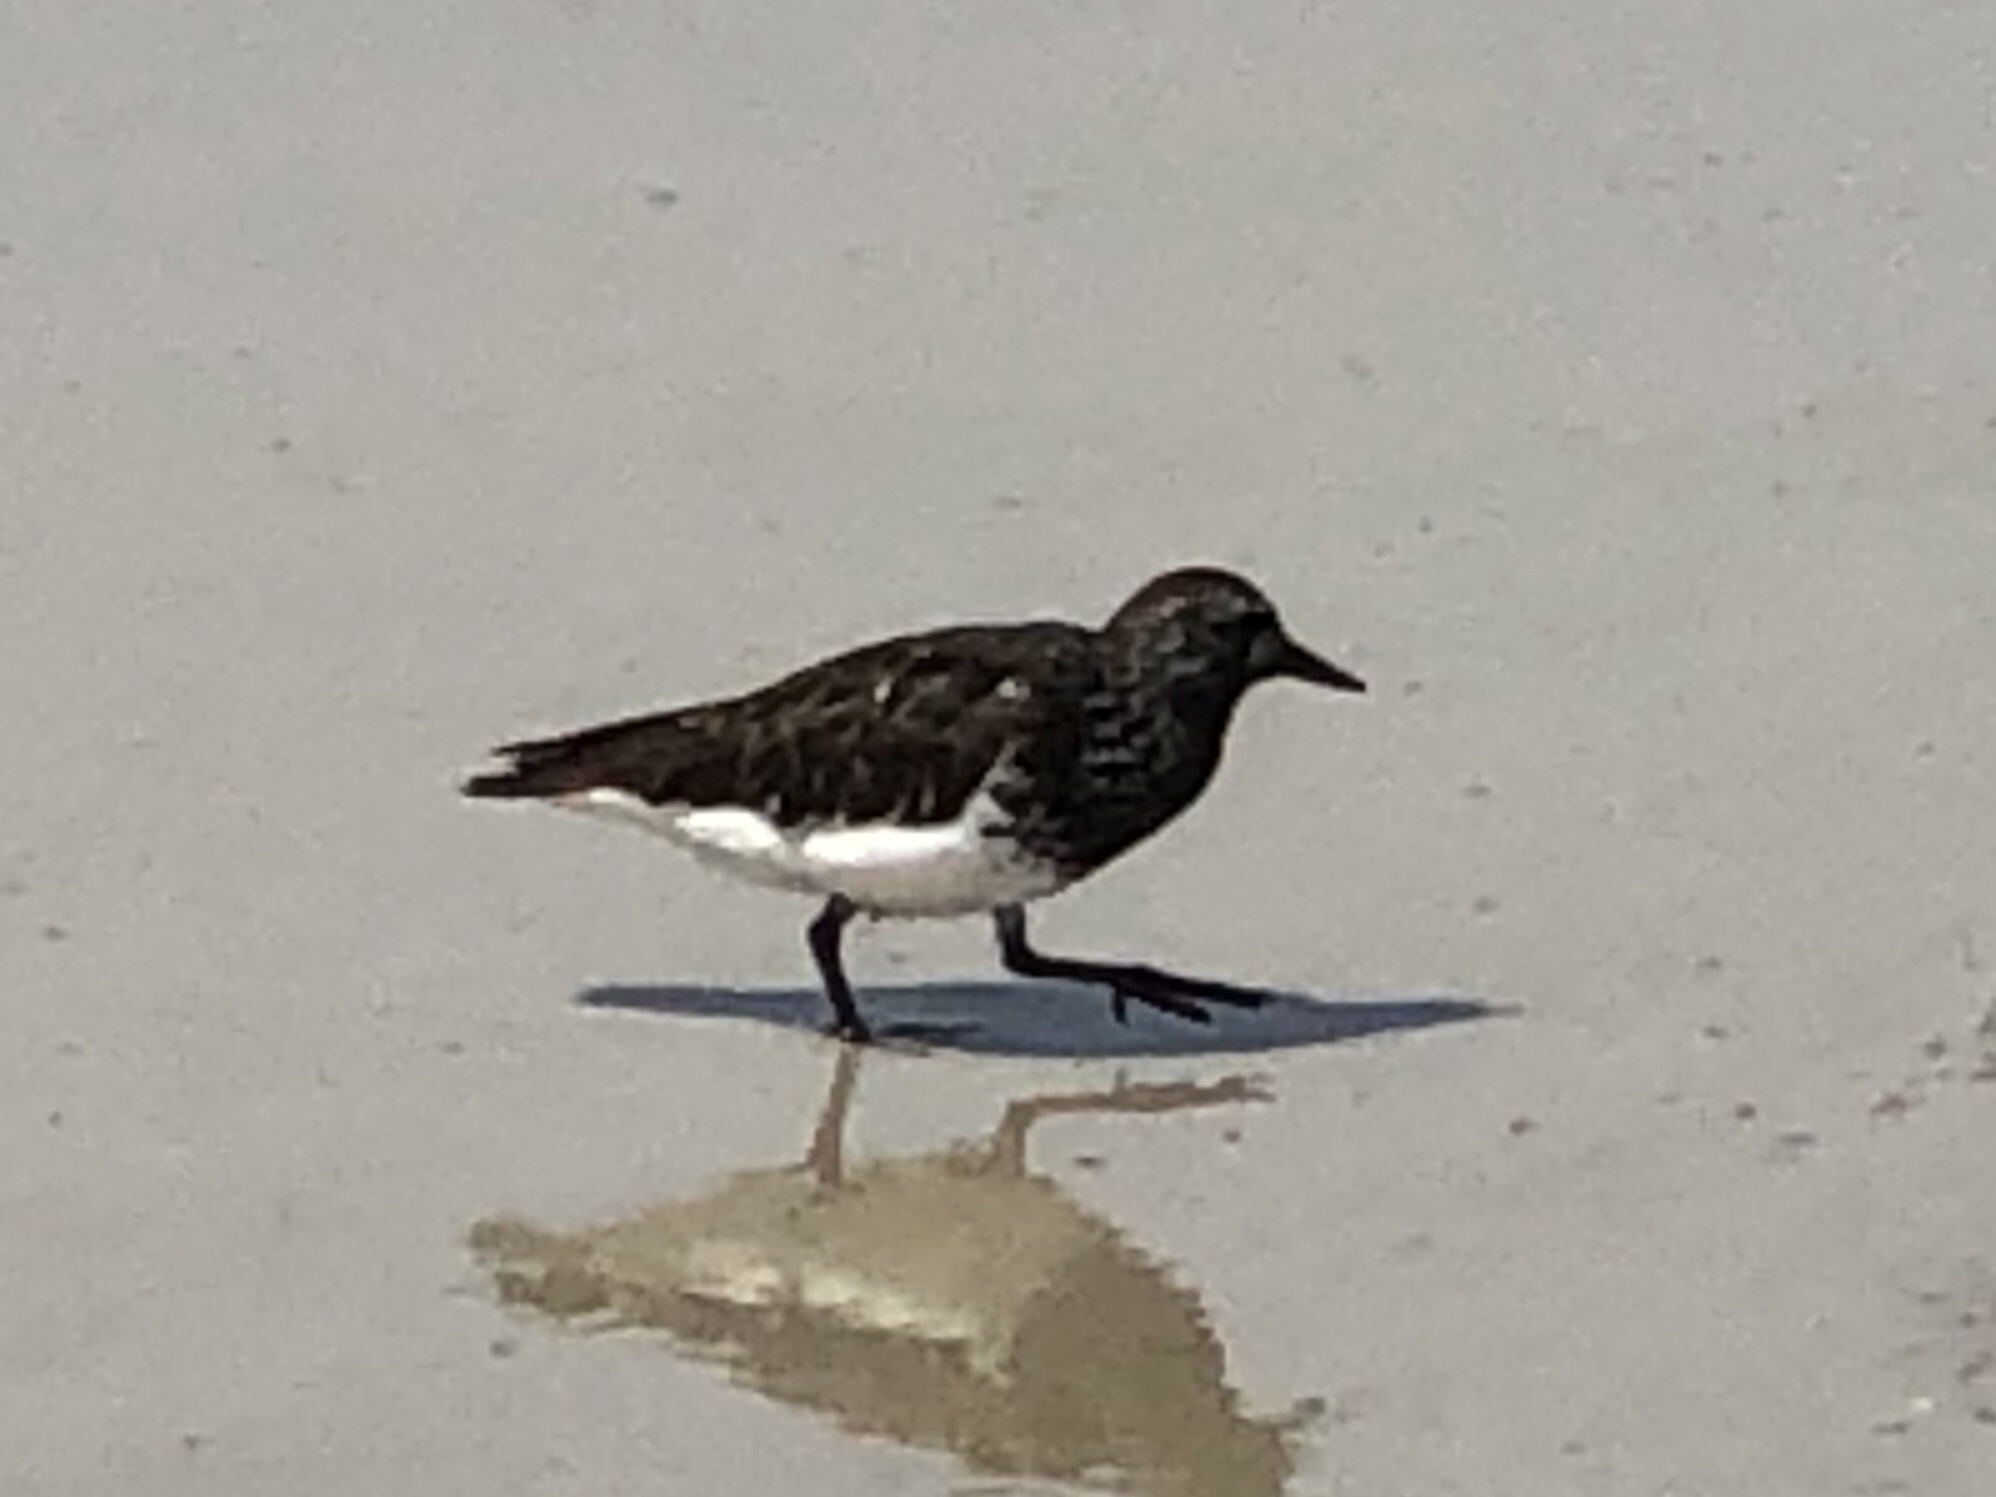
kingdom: Animalia
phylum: Chordata
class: Aves
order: Charadriiformes
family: Scolopacidae
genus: Arenaria
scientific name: Arenaria melanocephala
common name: Black turnstone
